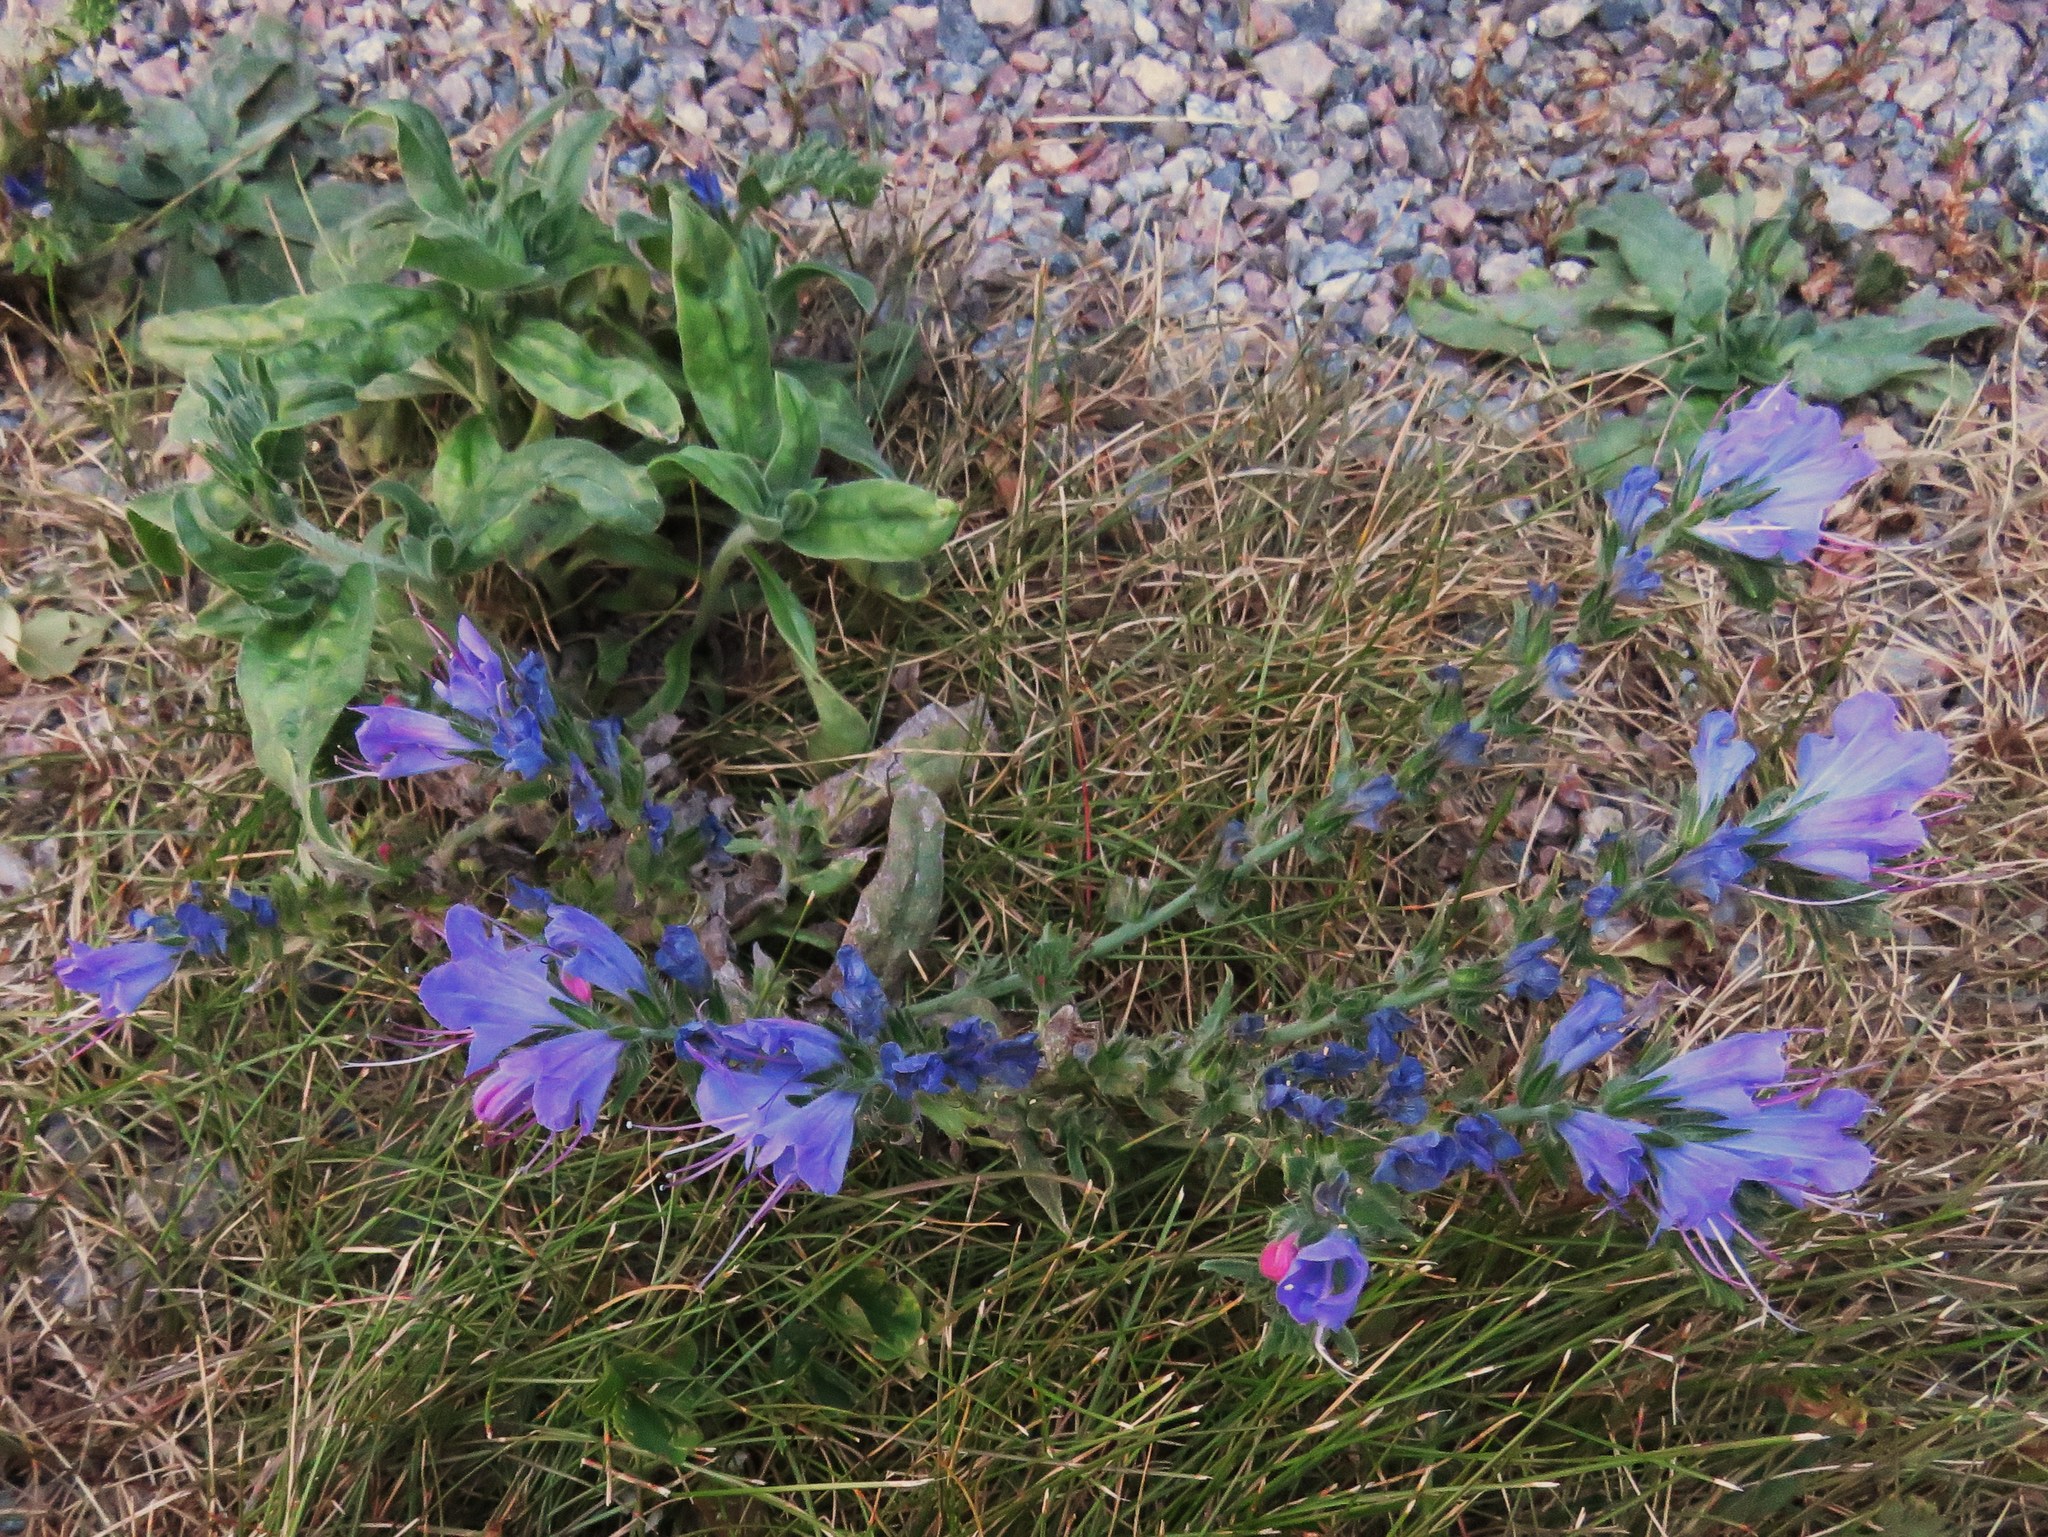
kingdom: Plantae
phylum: Tracheophyta
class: Magnoliopsida
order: Boraginales
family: Boraginaceae
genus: Echium
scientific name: Echium vulgare
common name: Common viper's bugloss
